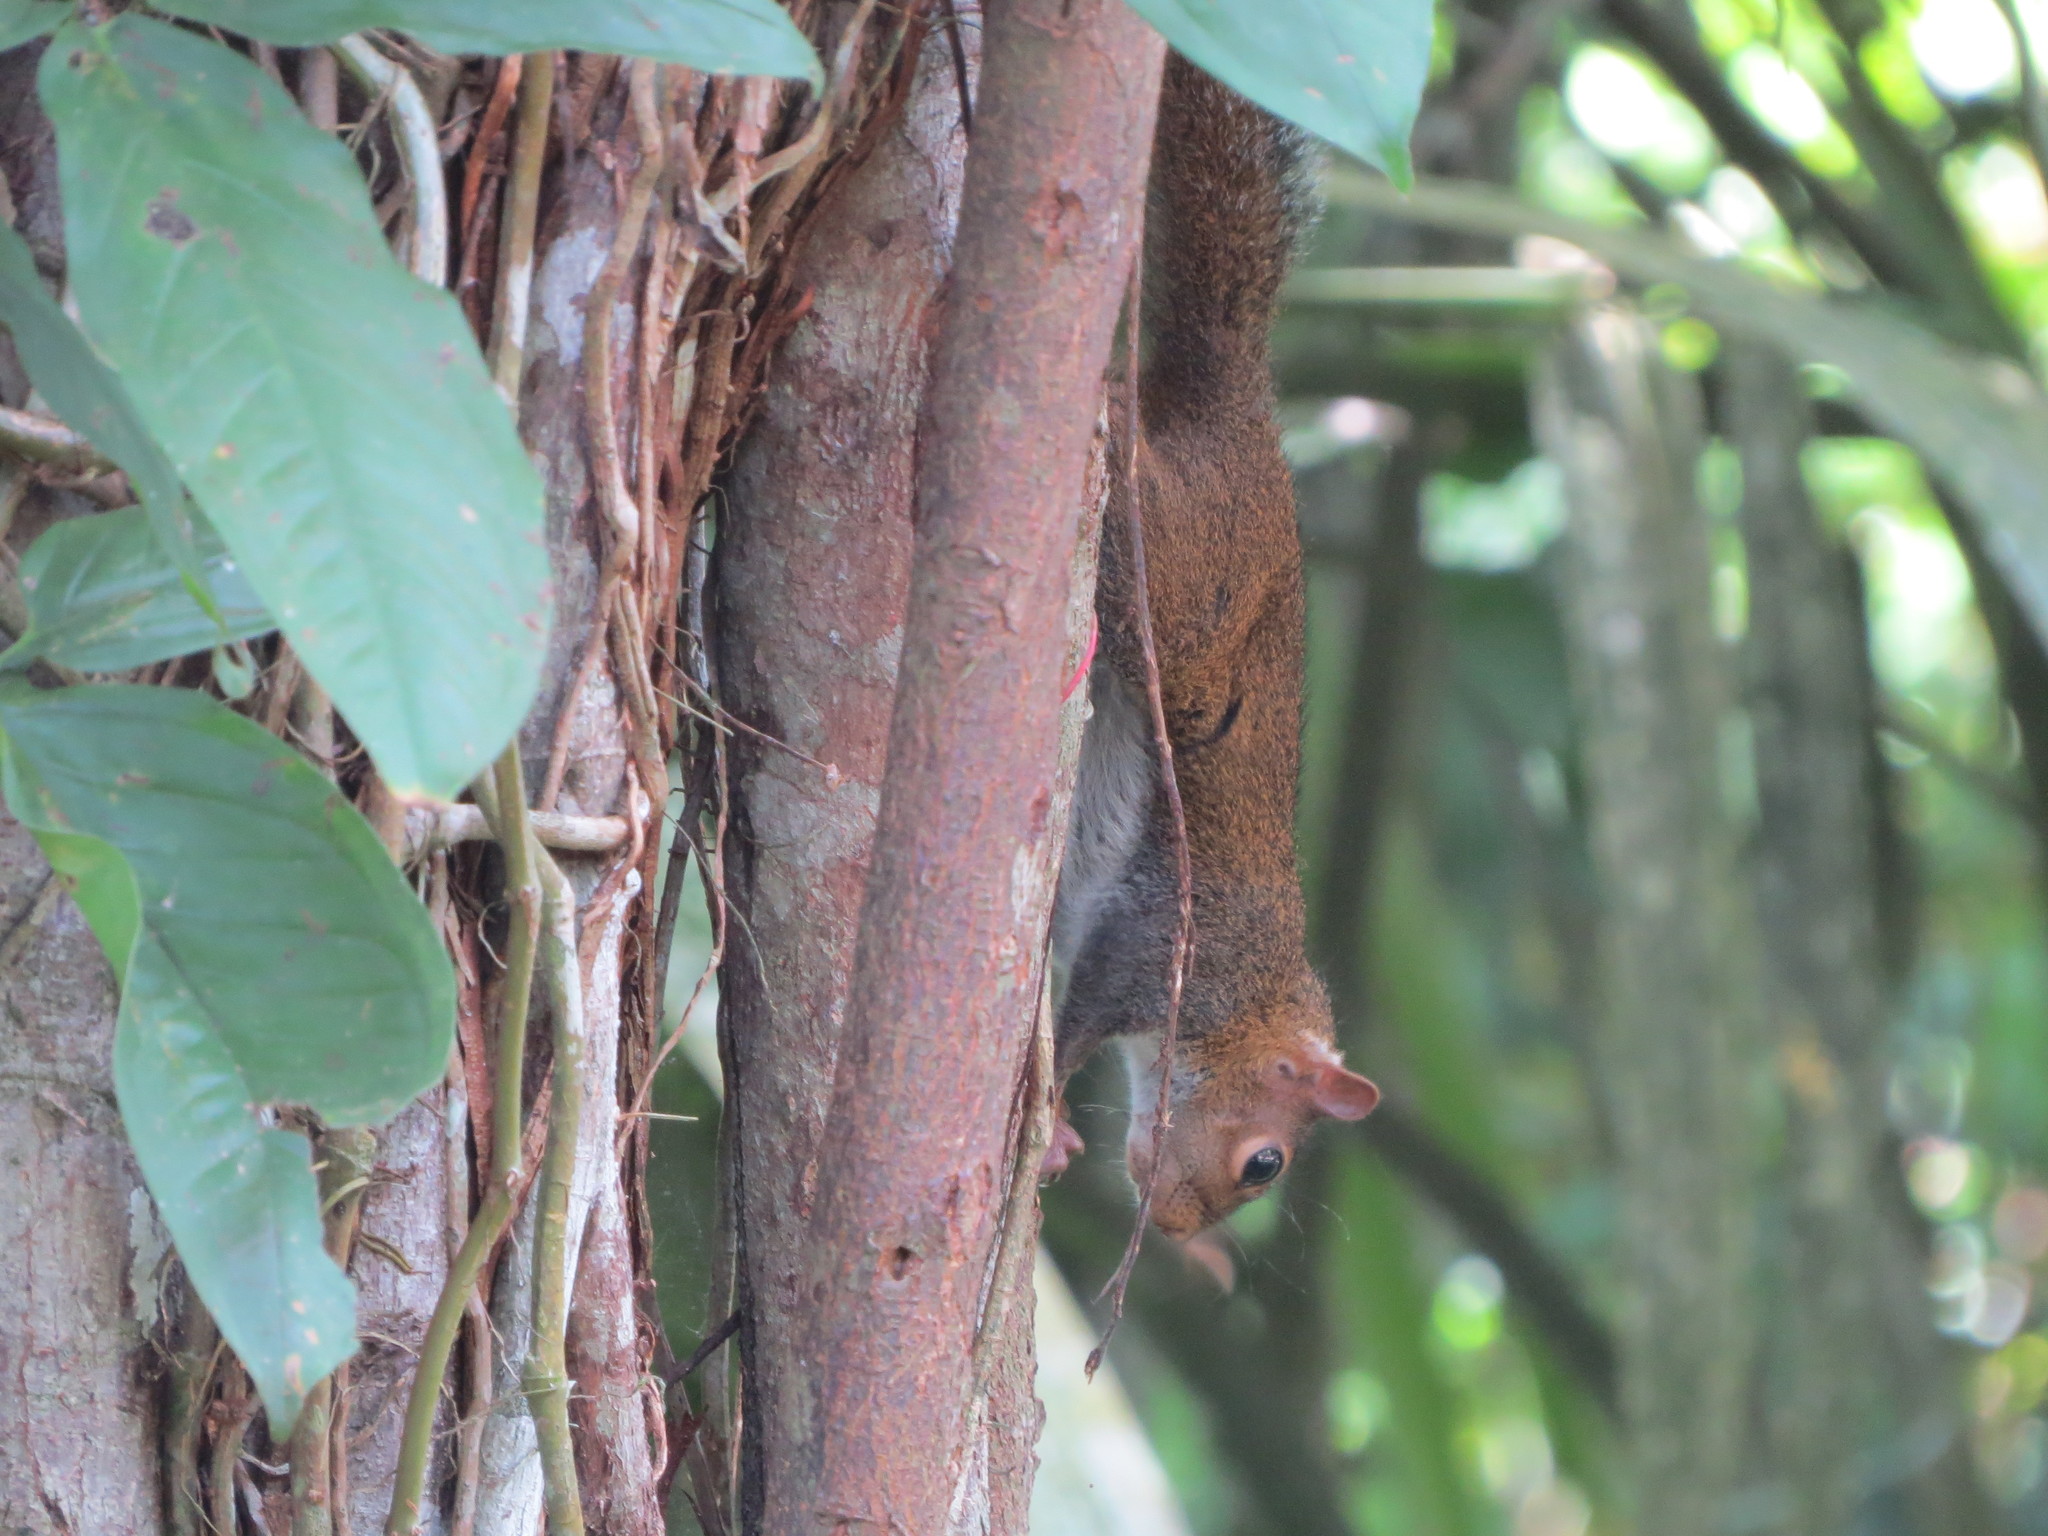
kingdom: Animalia
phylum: Chordata
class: Mammalia
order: Rodentia
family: Sciuridae
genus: Sciurus
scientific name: Sciurus deppei
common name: Deppe's squirrel
